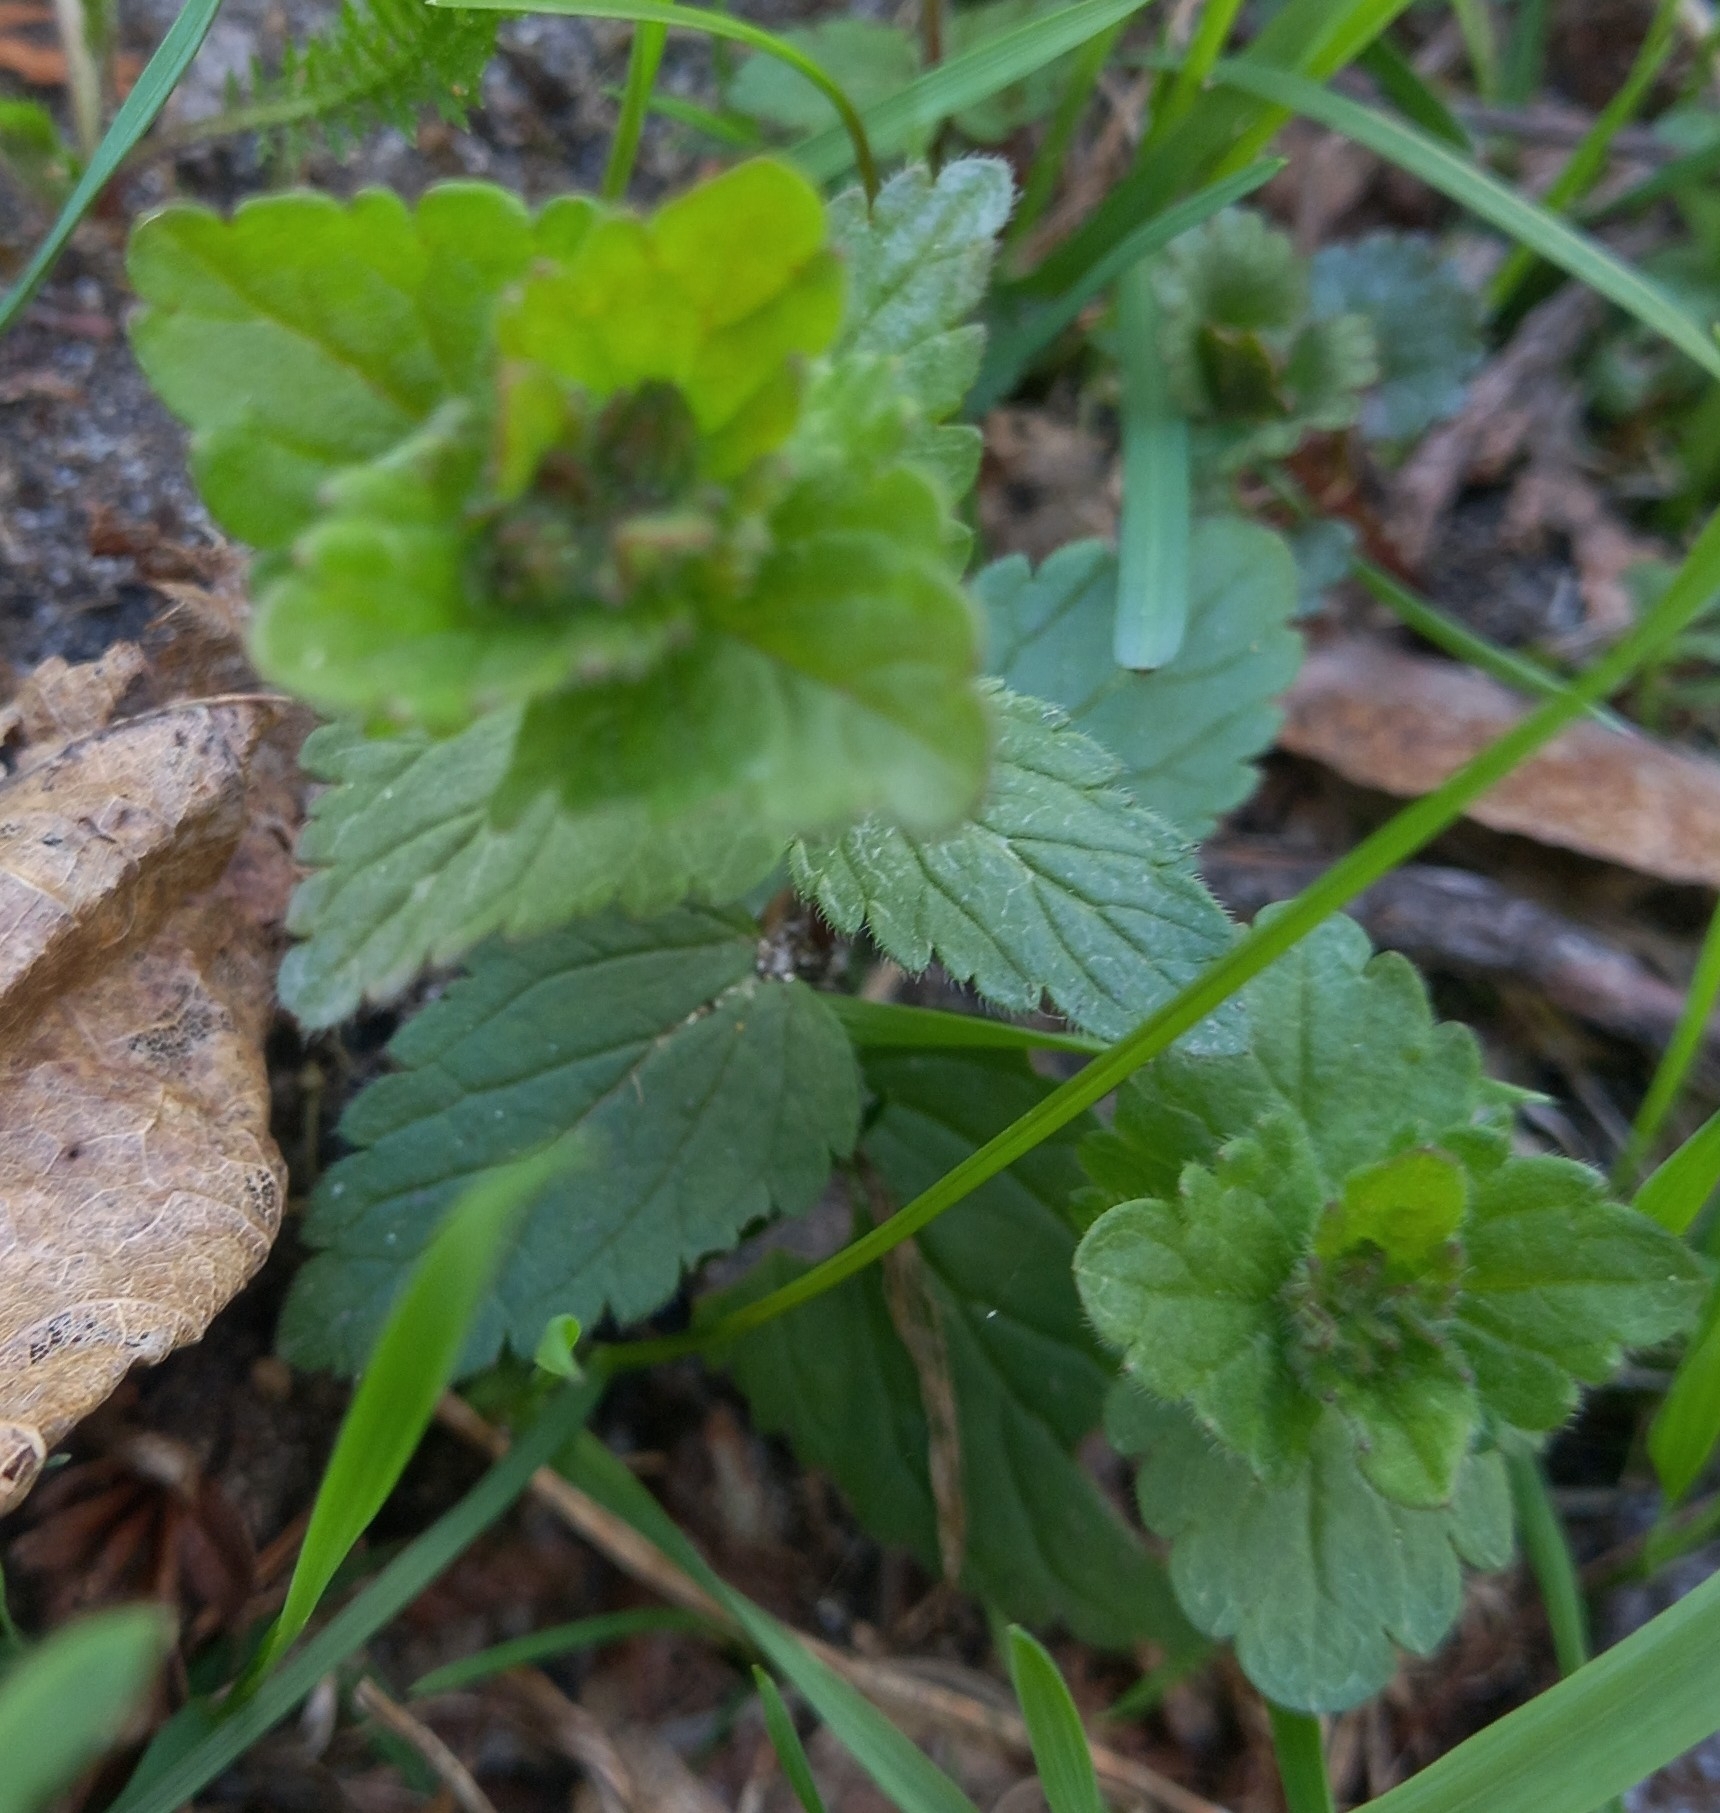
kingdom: Plantae
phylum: Tracheophyta
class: Magnoliopsida
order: Lamiales
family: Plantaginaceae
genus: Veronica
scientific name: Veronica chamaedrys
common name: Germander speedwell
